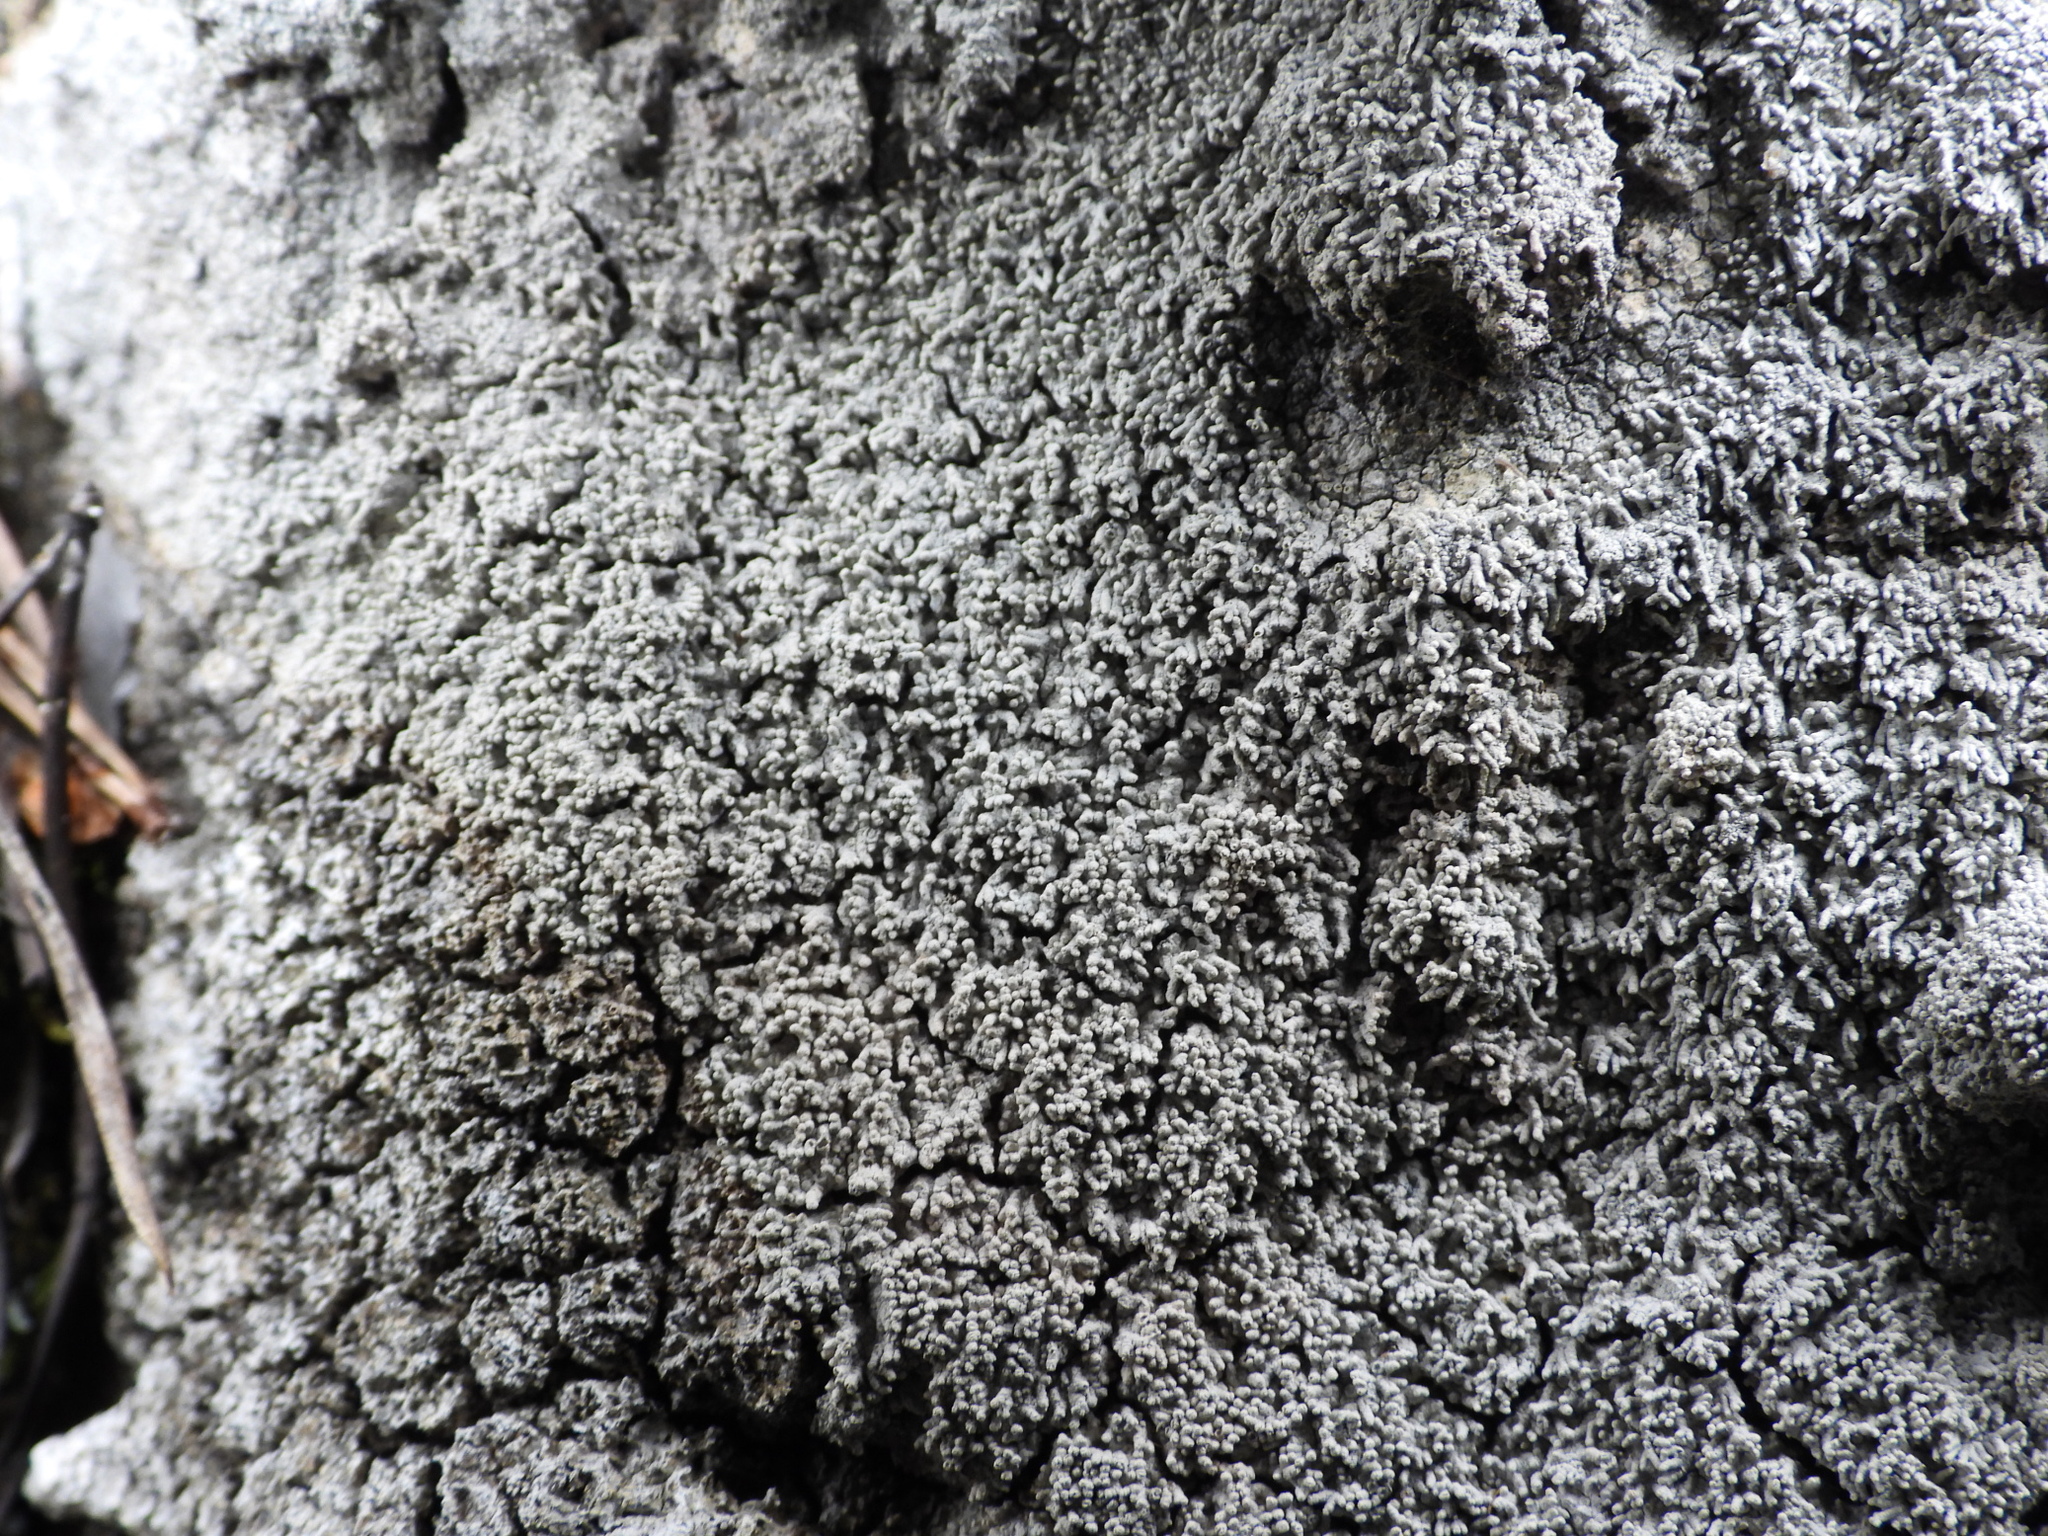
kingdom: Fungi
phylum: Ascomycota
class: Lecanoromycetes
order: Pertusariales
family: Pertusariaceae
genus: Lepra
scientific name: Lepra corallina
